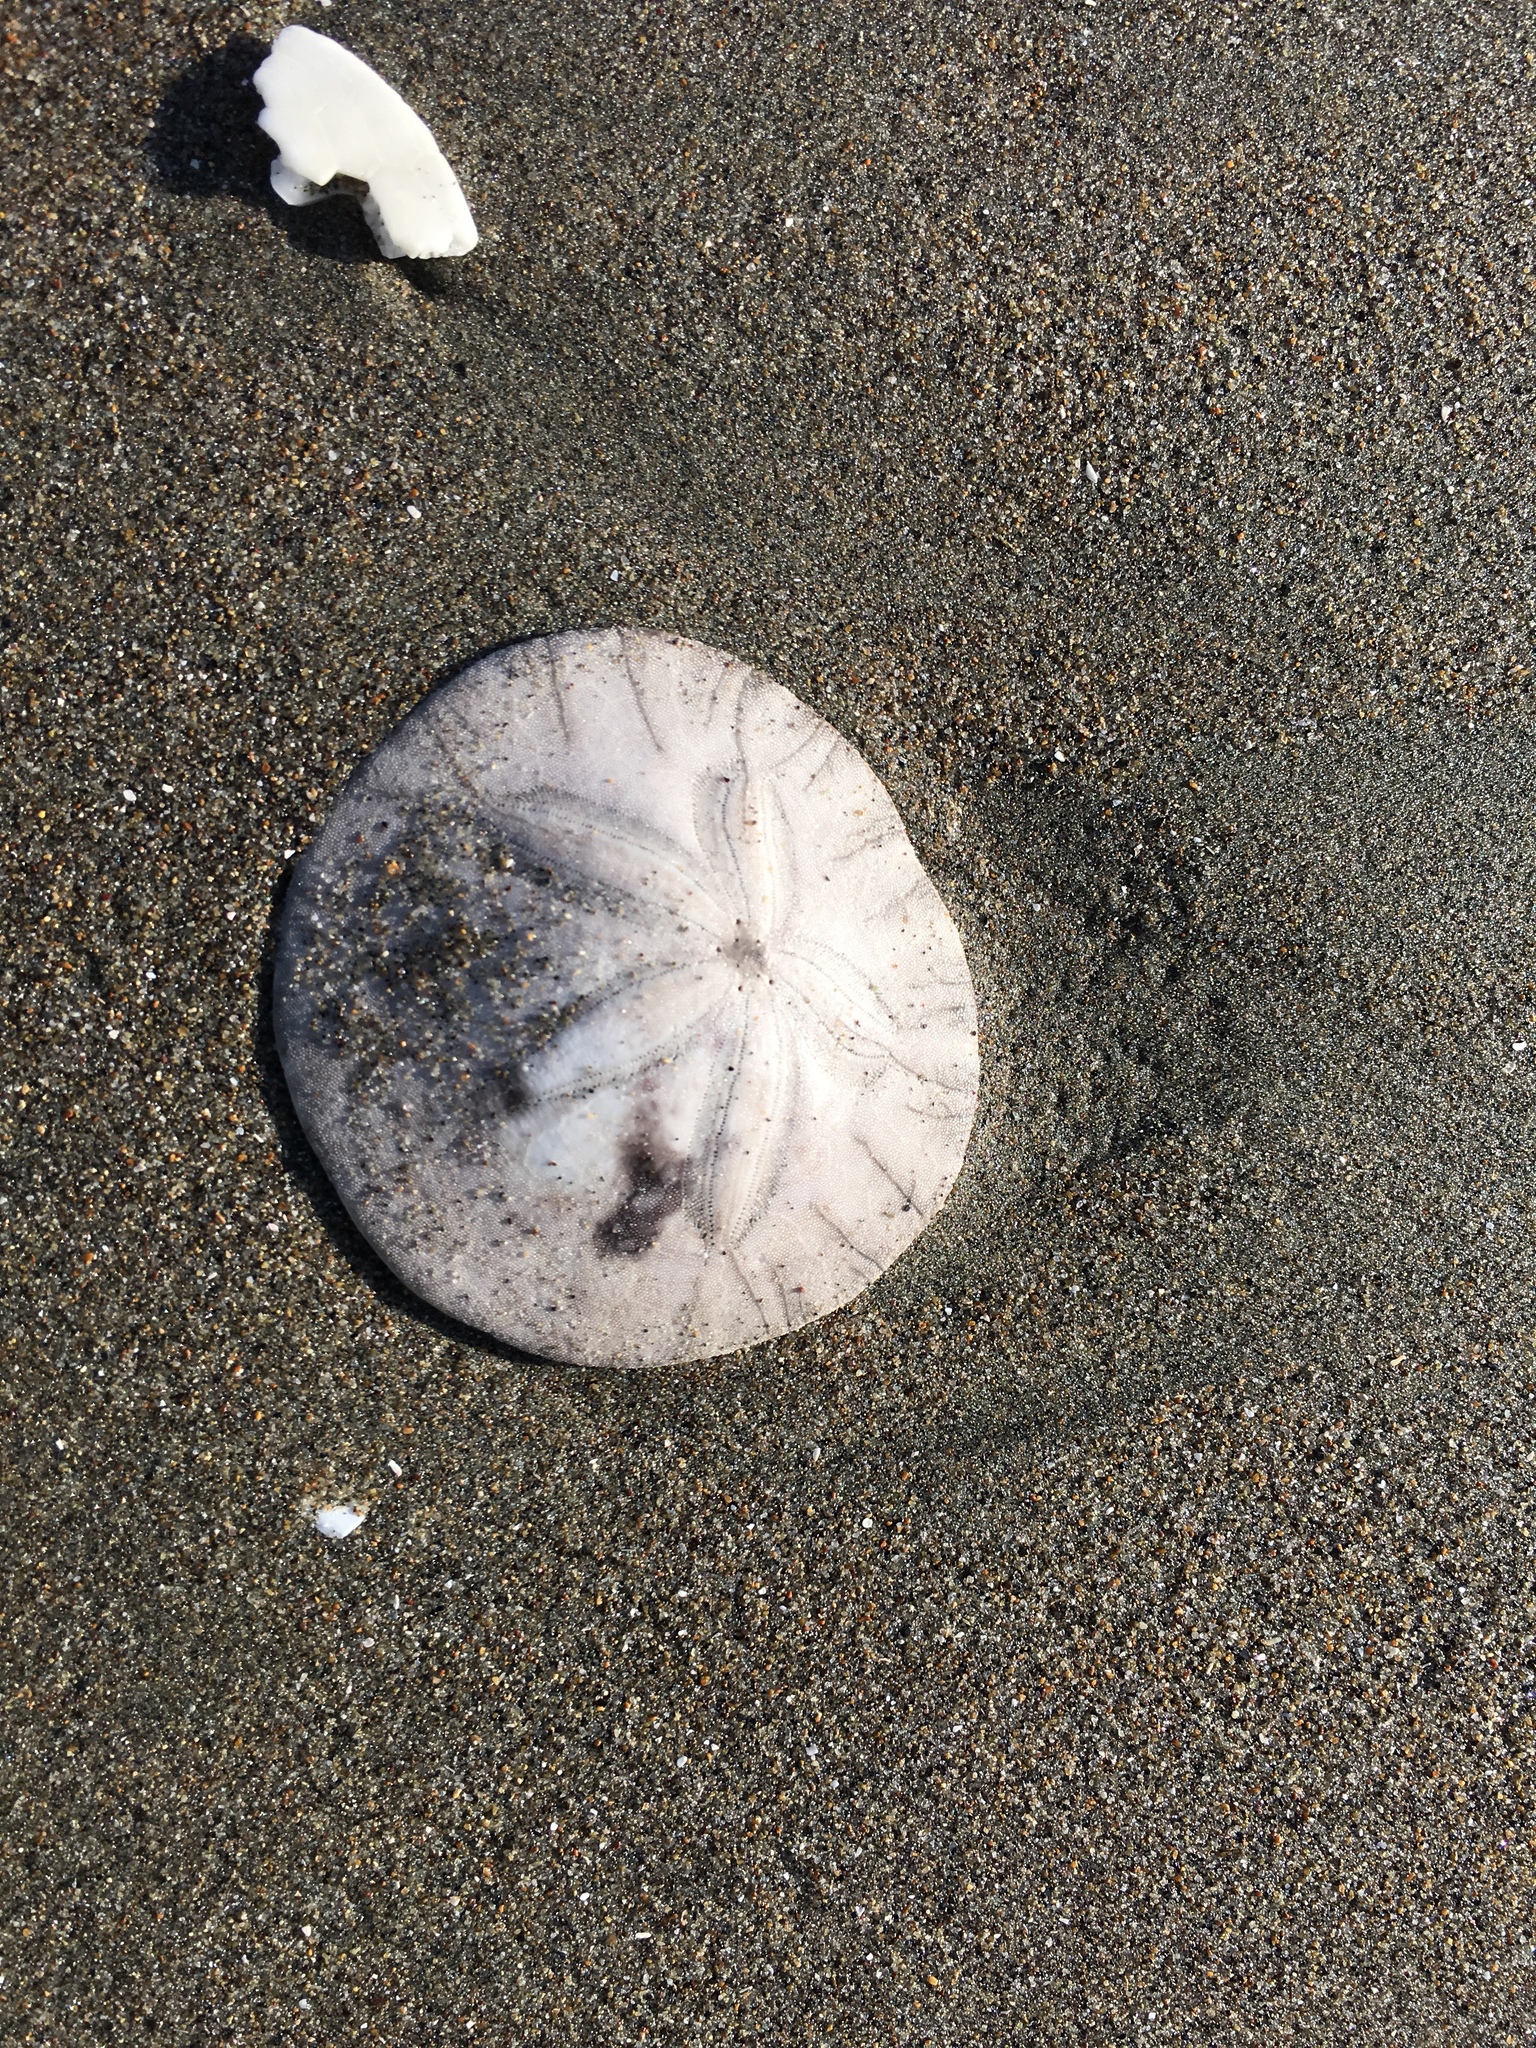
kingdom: Animalia
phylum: Echinodermata
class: Echinoidea
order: Echinolampadacea
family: Dendrasteridae
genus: Dendraster
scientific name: Dendraster excentricus
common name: Eccentric sand dollar sea urchin
